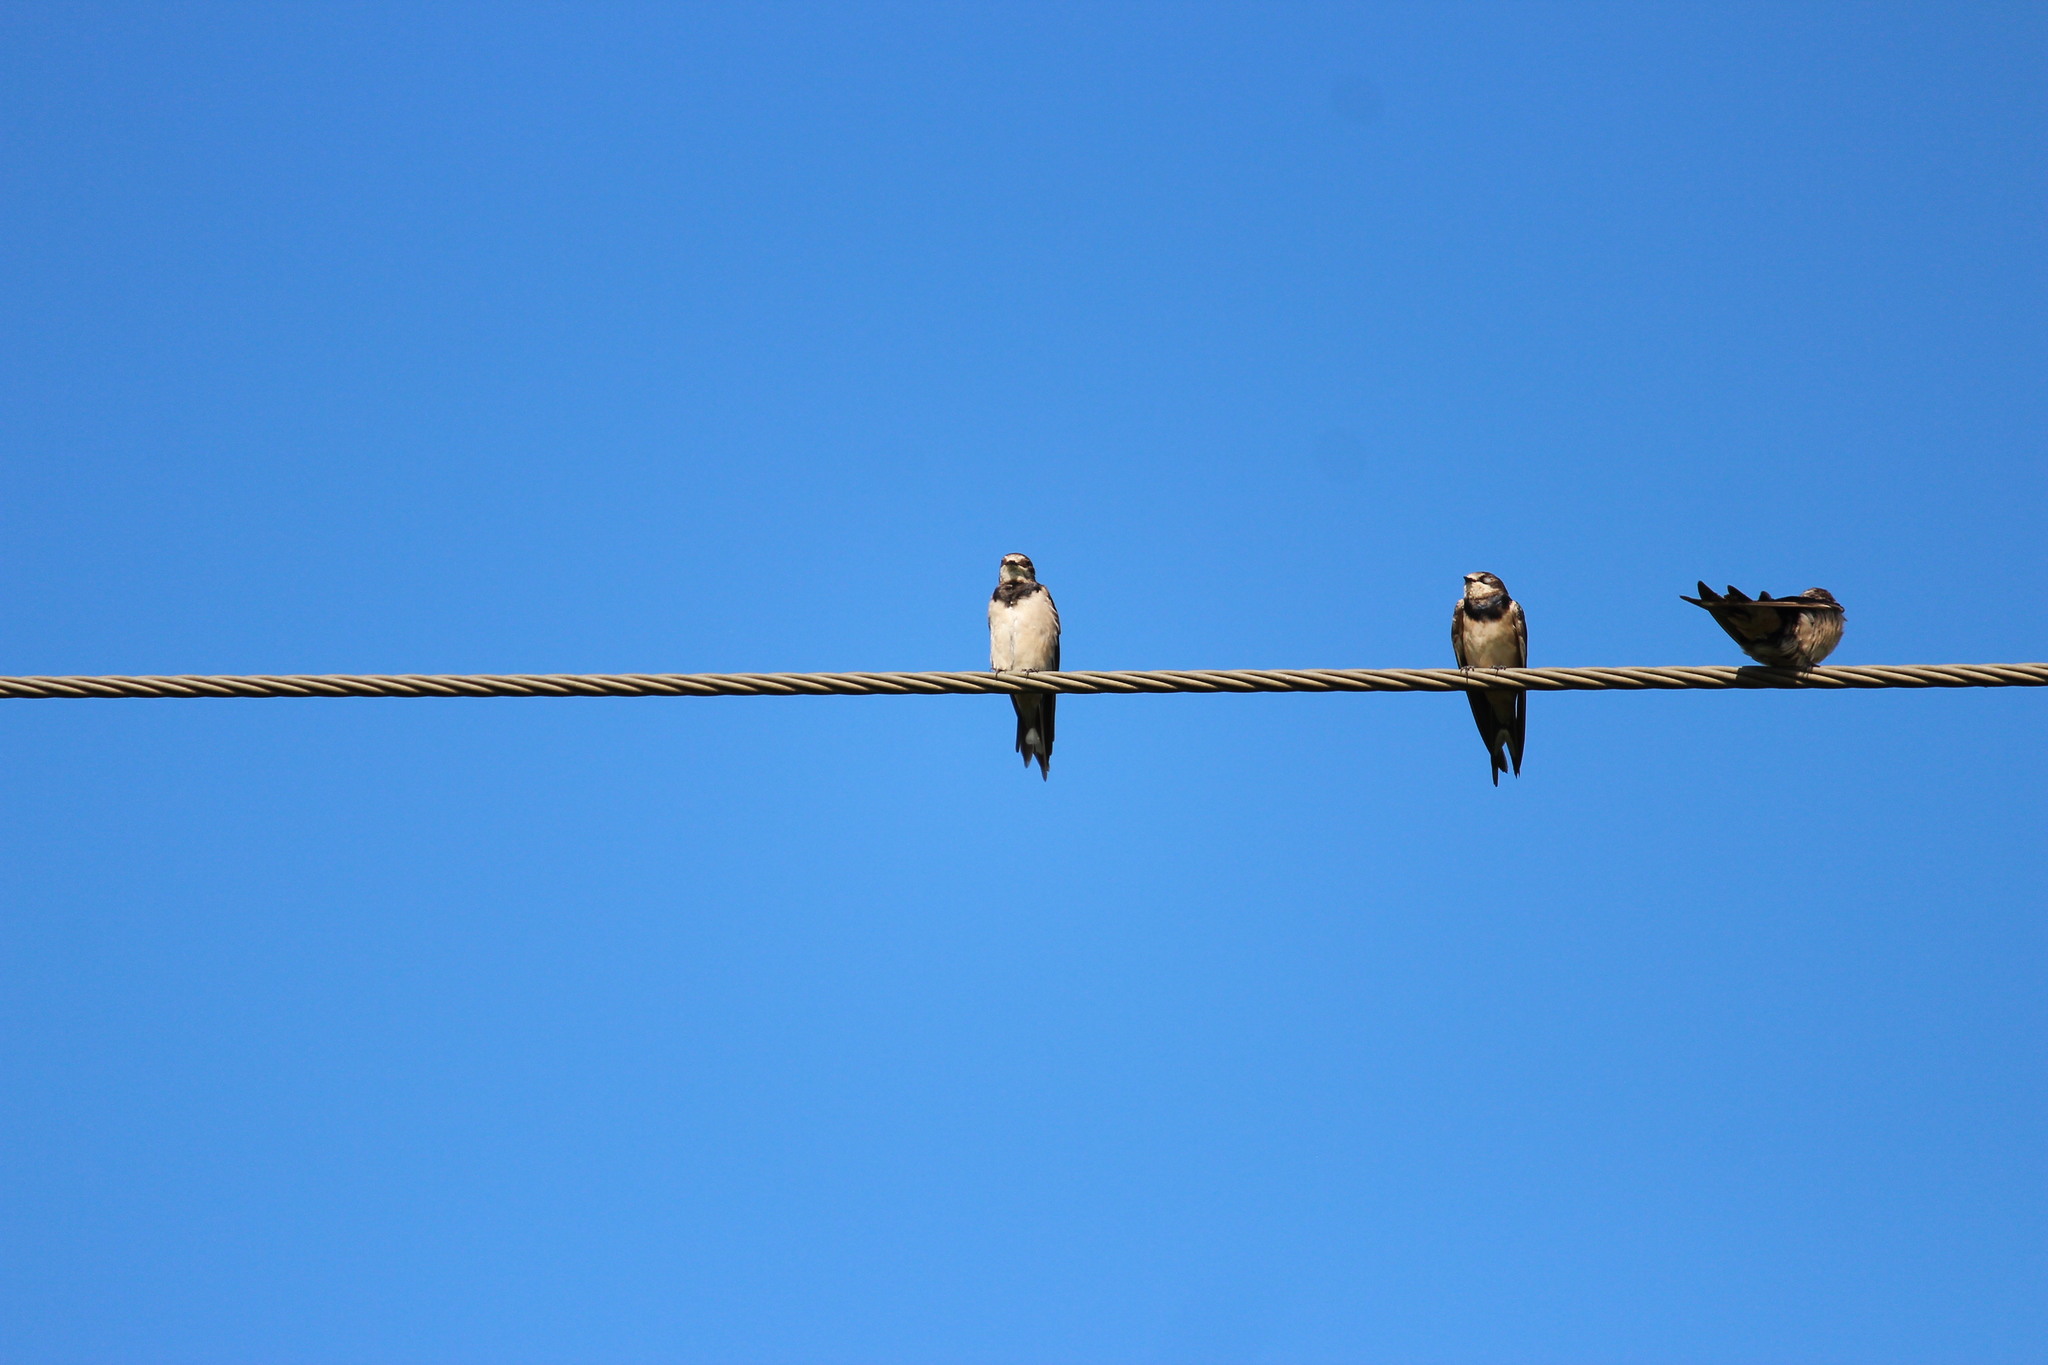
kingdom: Animalia
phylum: Chordata
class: Aves
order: Passeriformes
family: Hirundinidae
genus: Hirundo
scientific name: Hirundo rustica
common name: Barn swallow
